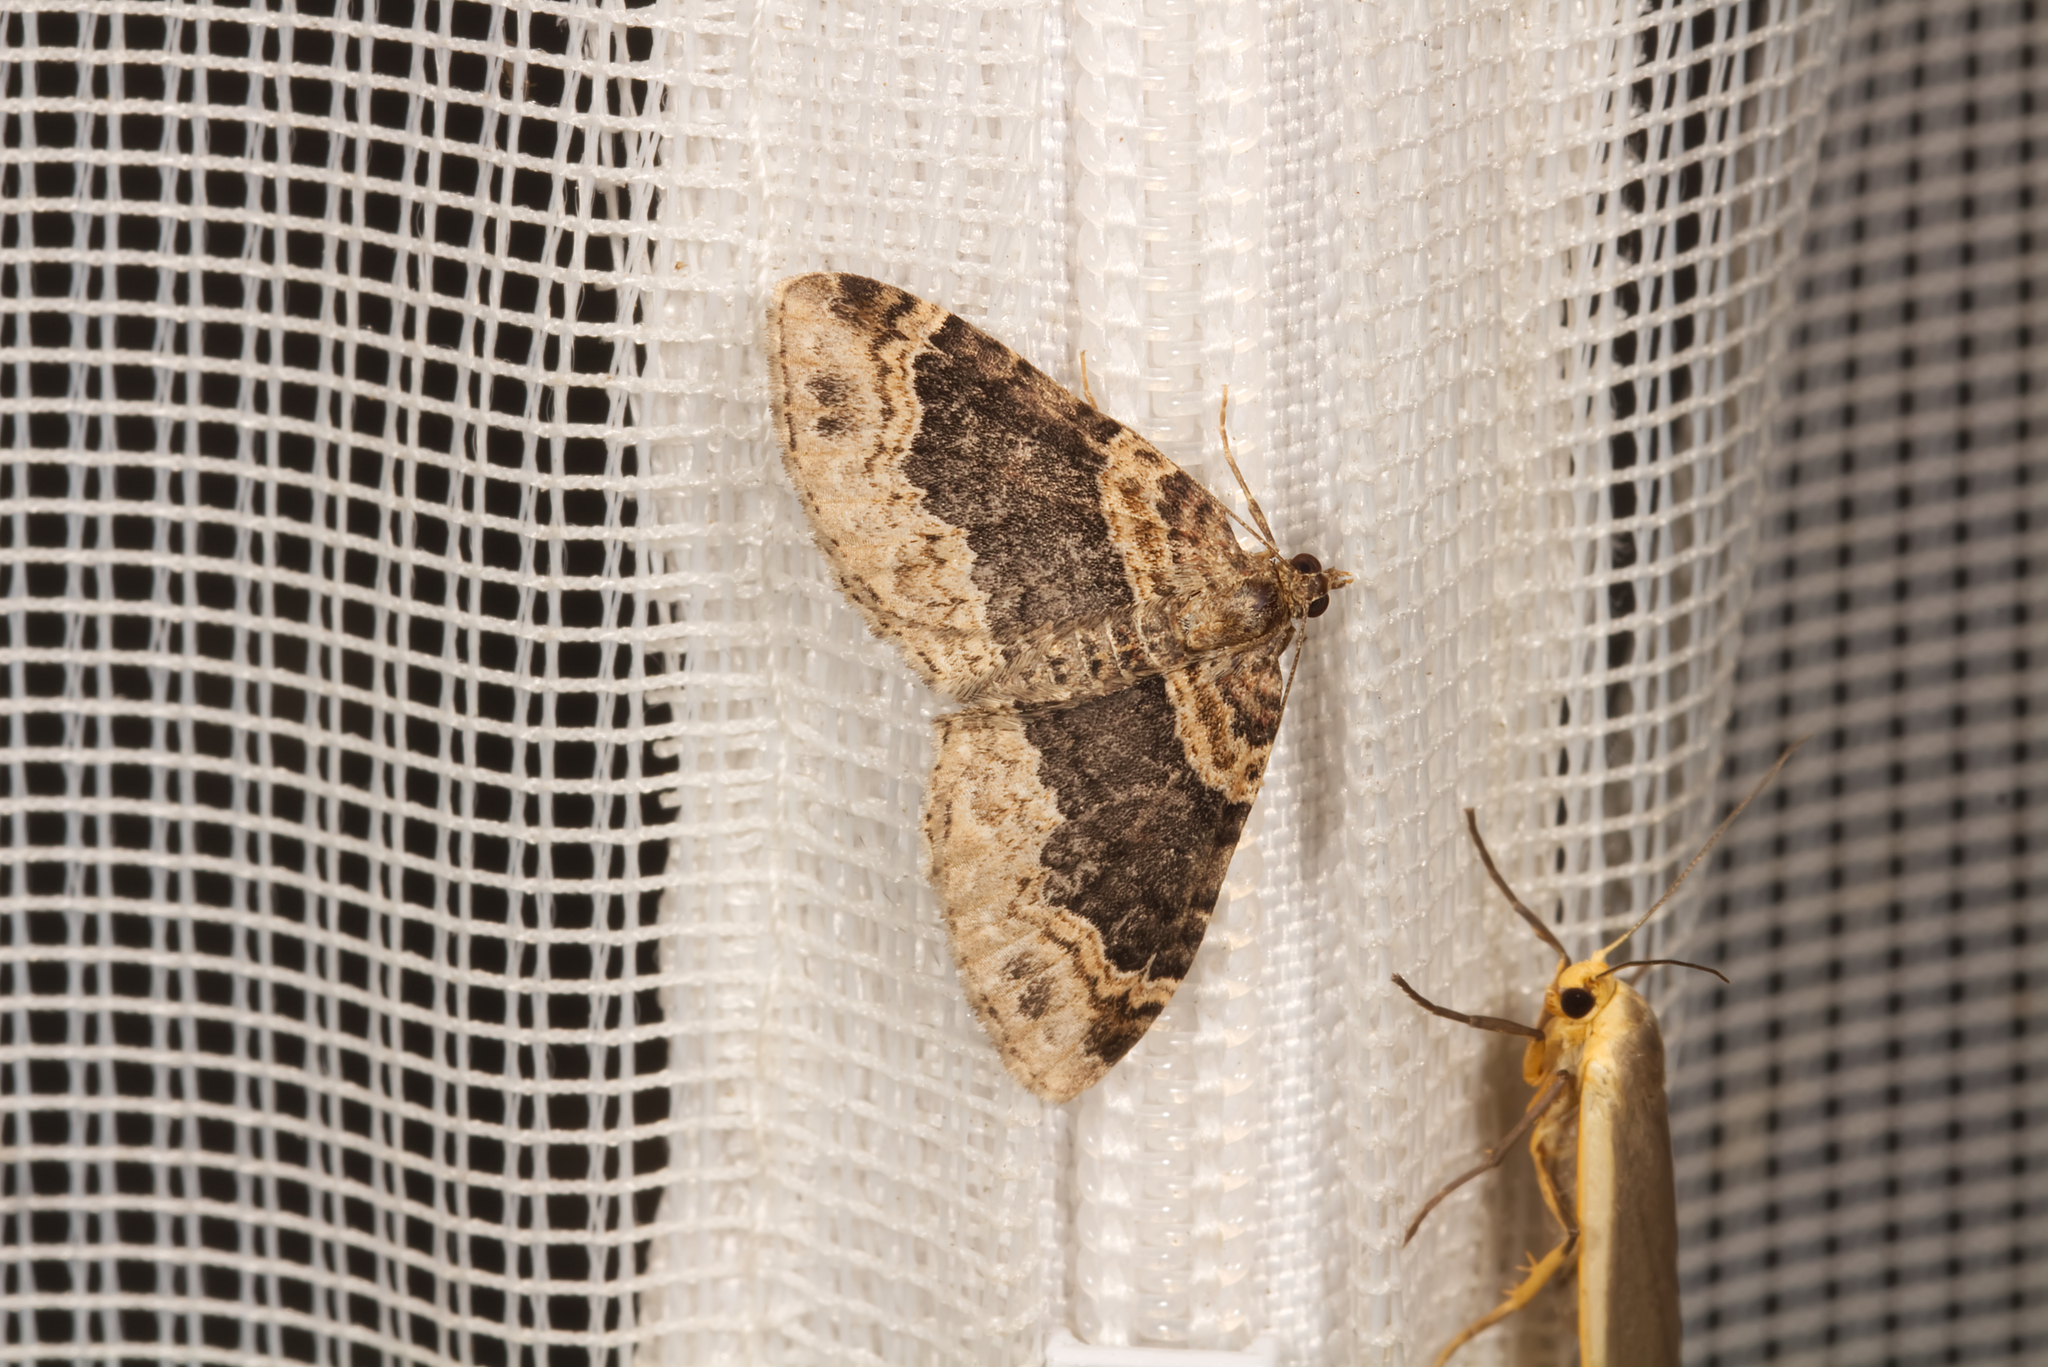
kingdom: Animalia
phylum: Arthropoda
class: Insecta
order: Lepidoptera
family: Geometridae
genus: Xanthorhoe
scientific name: Xanthorhoe ferrugata
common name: Dark-barred twin-spot carpet
